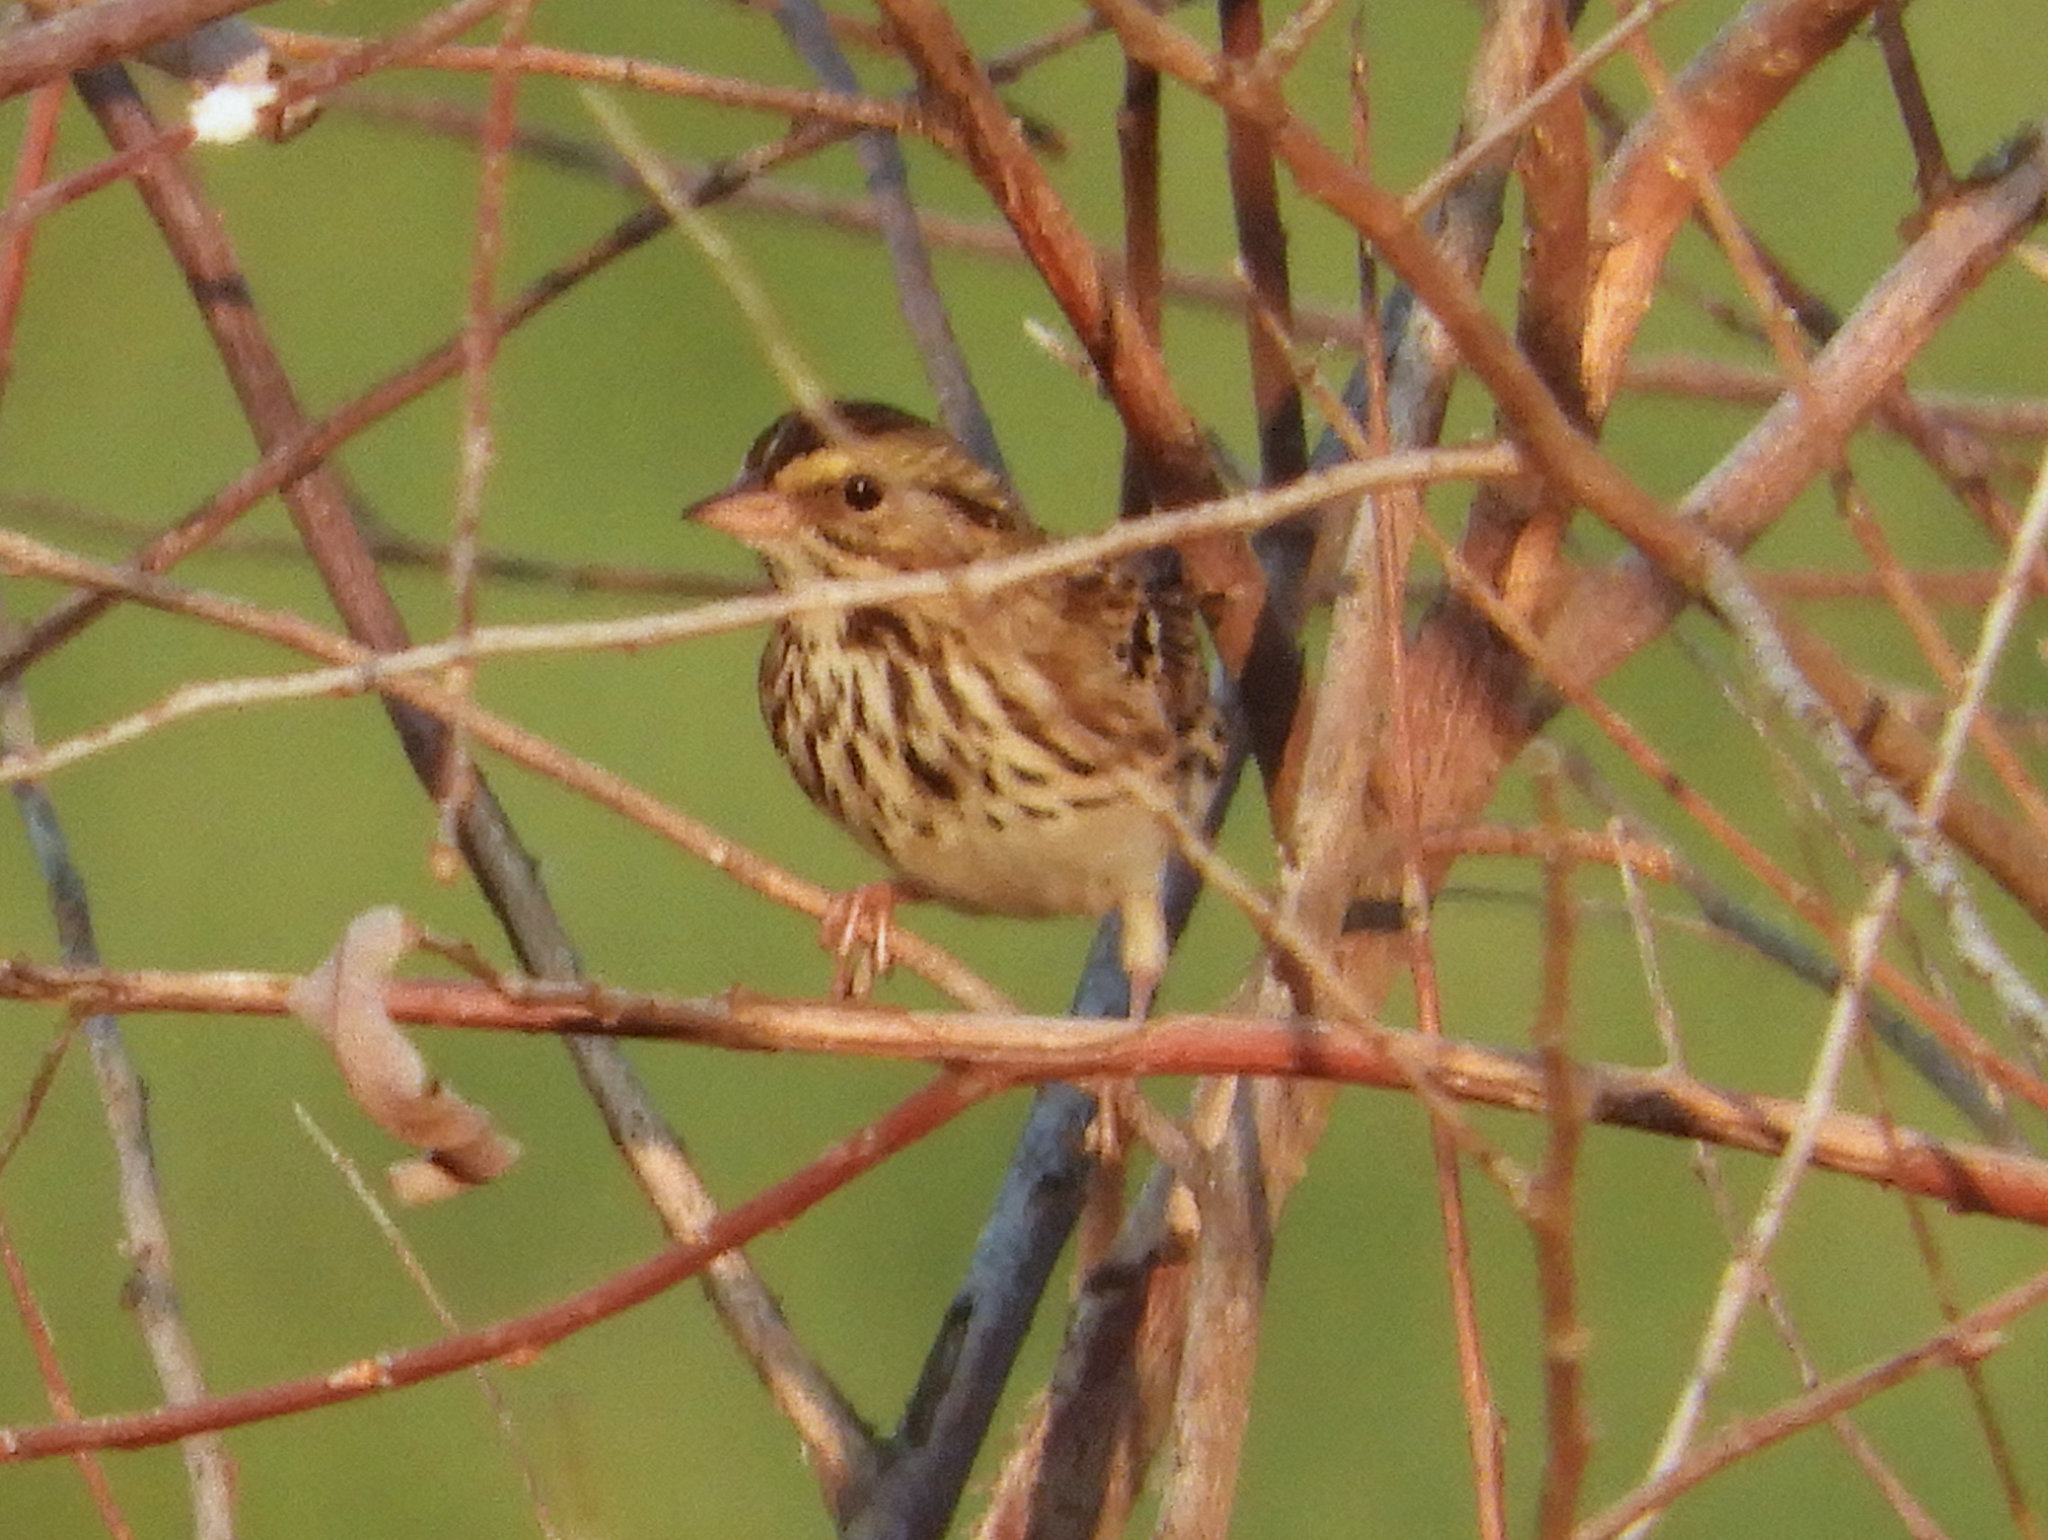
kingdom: Animalia
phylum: Chordata
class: Aves
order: Passeriformes
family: Passerellidae
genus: Passerculus
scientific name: Passerculus sandwichensis
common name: Savannah sparrow
